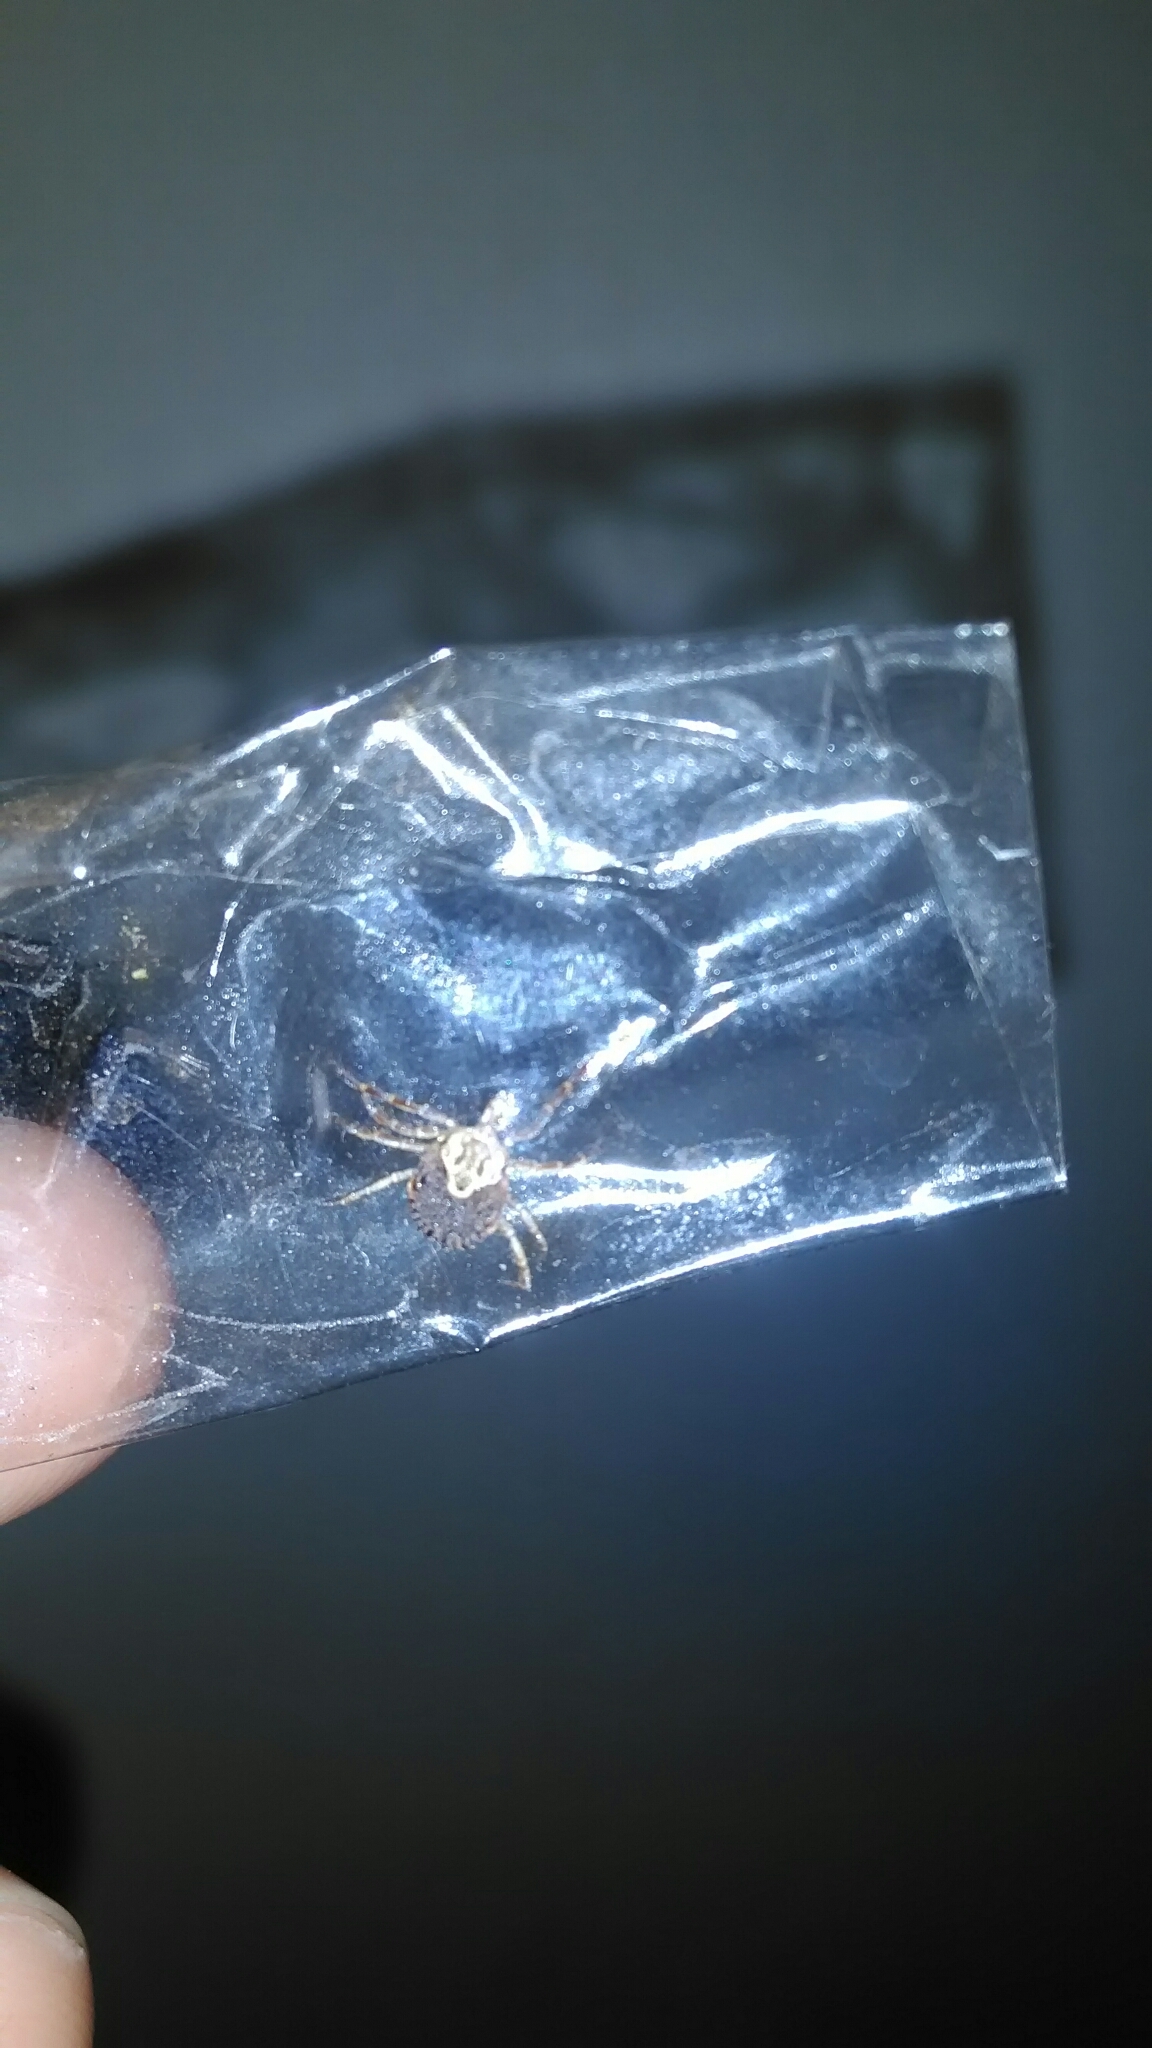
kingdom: Animalia
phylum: Arthropoda
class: Arachnida
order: Ixodida
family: Ixodidae
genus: Amblyomma
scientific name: Amblyomma cajennense
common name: Cayenne tick
